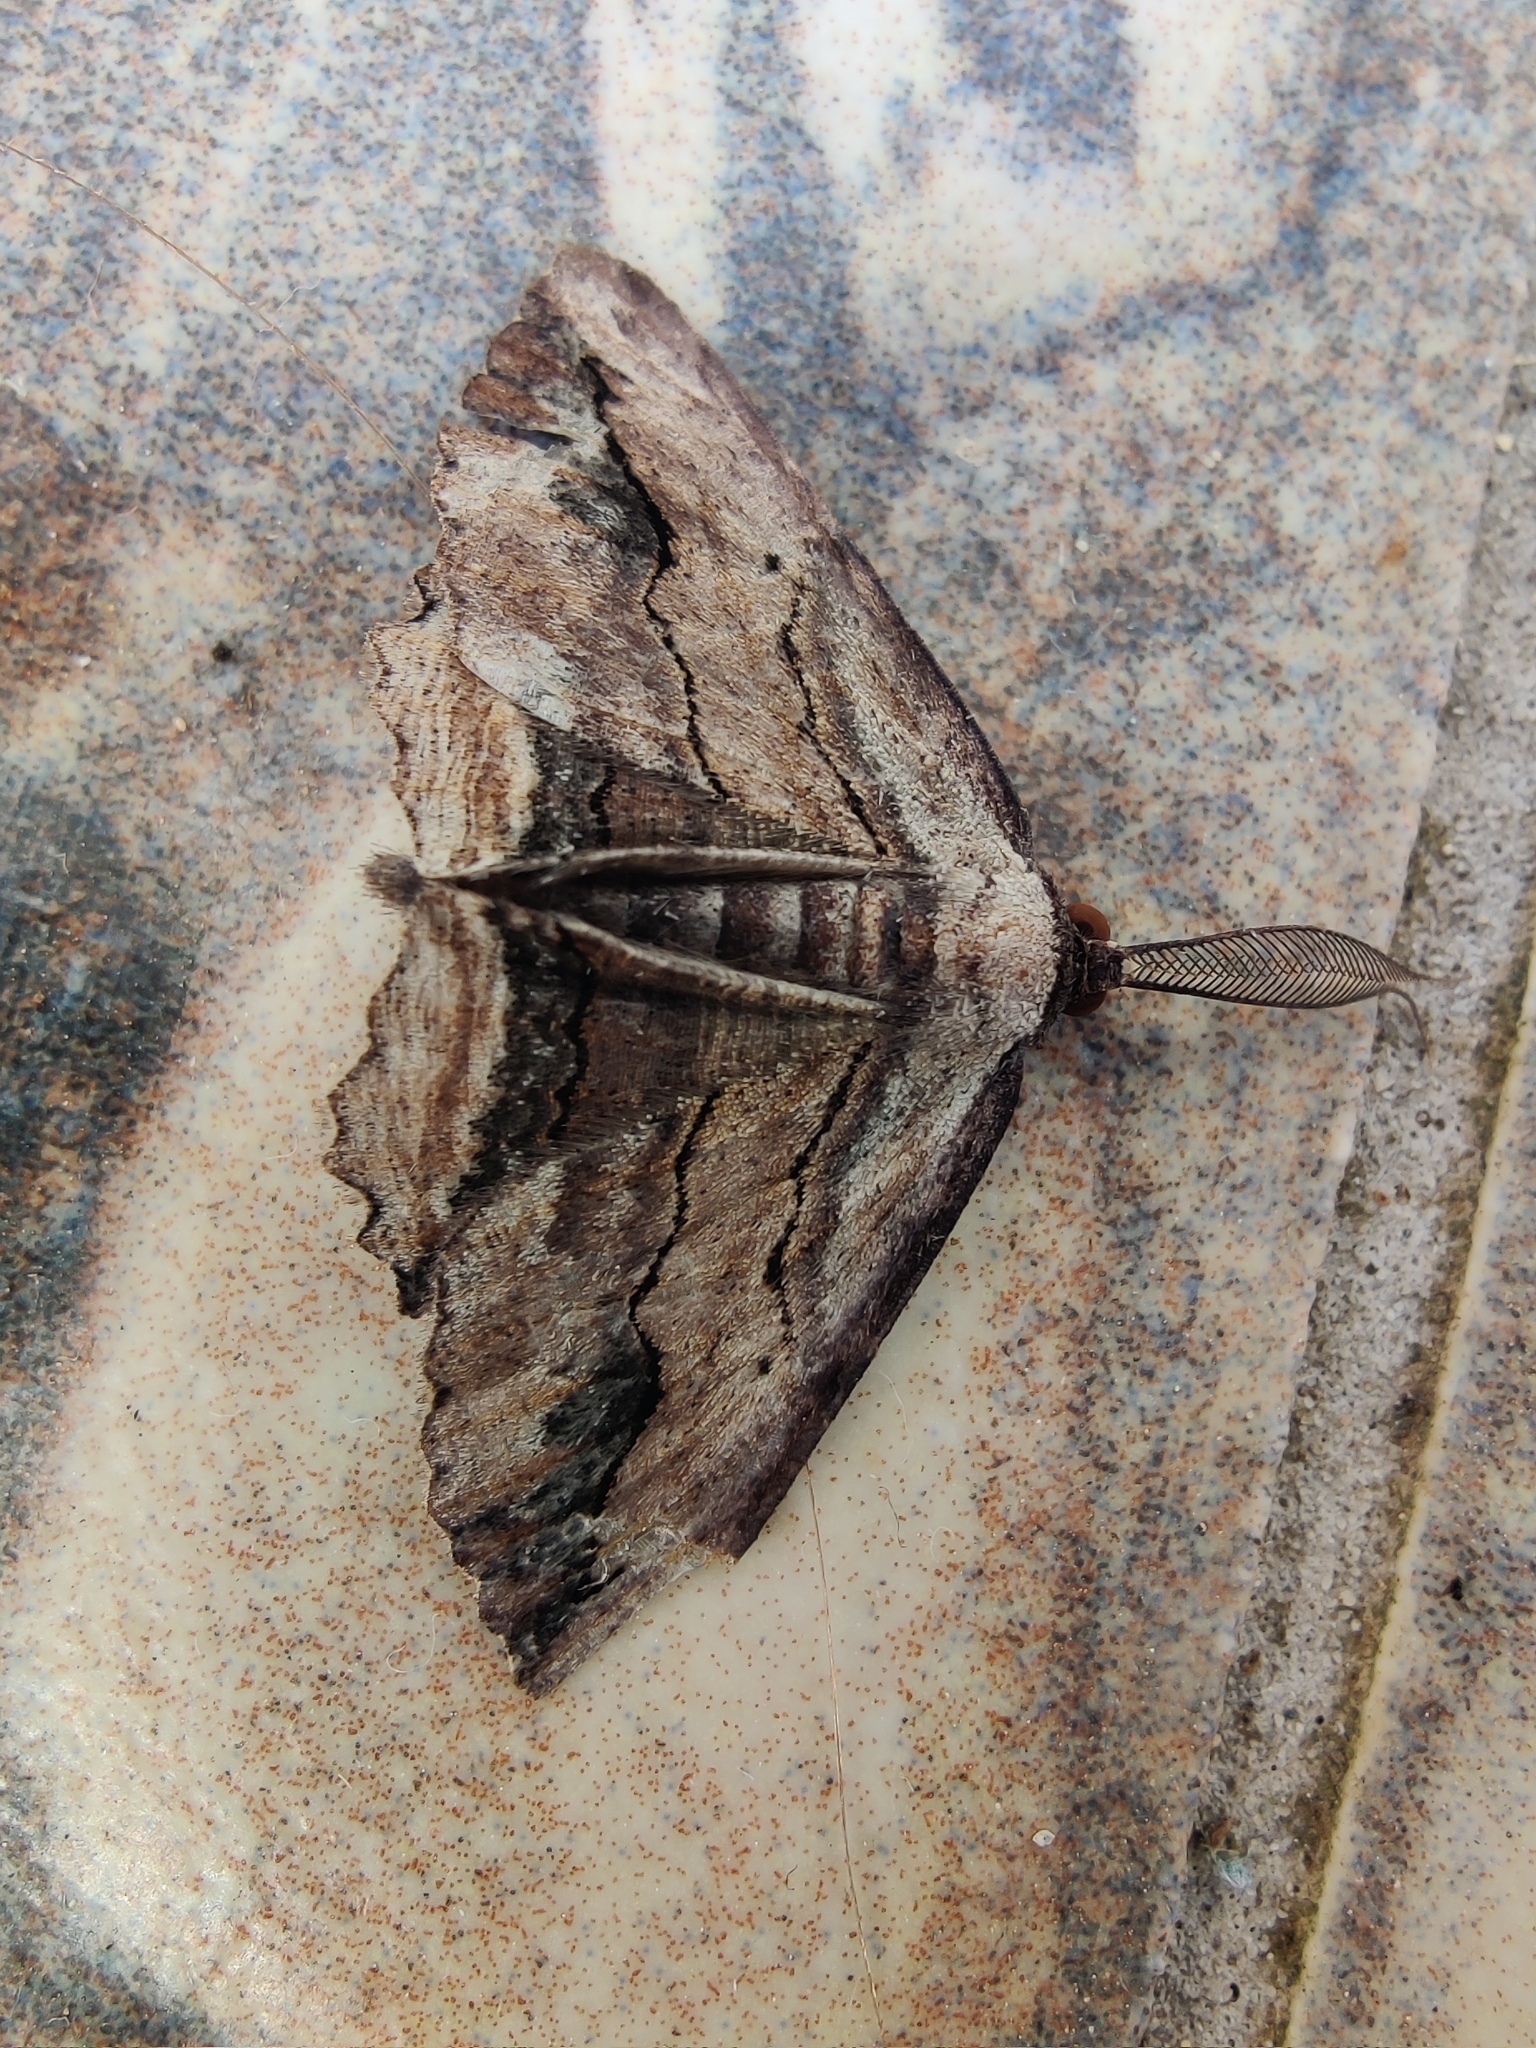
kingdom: Animalia
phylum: Arthropoda
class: Insecta
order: Lepidoptera
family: Geometridae
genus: Menophra
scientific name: Menophra abruptaria
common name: Waved umber
